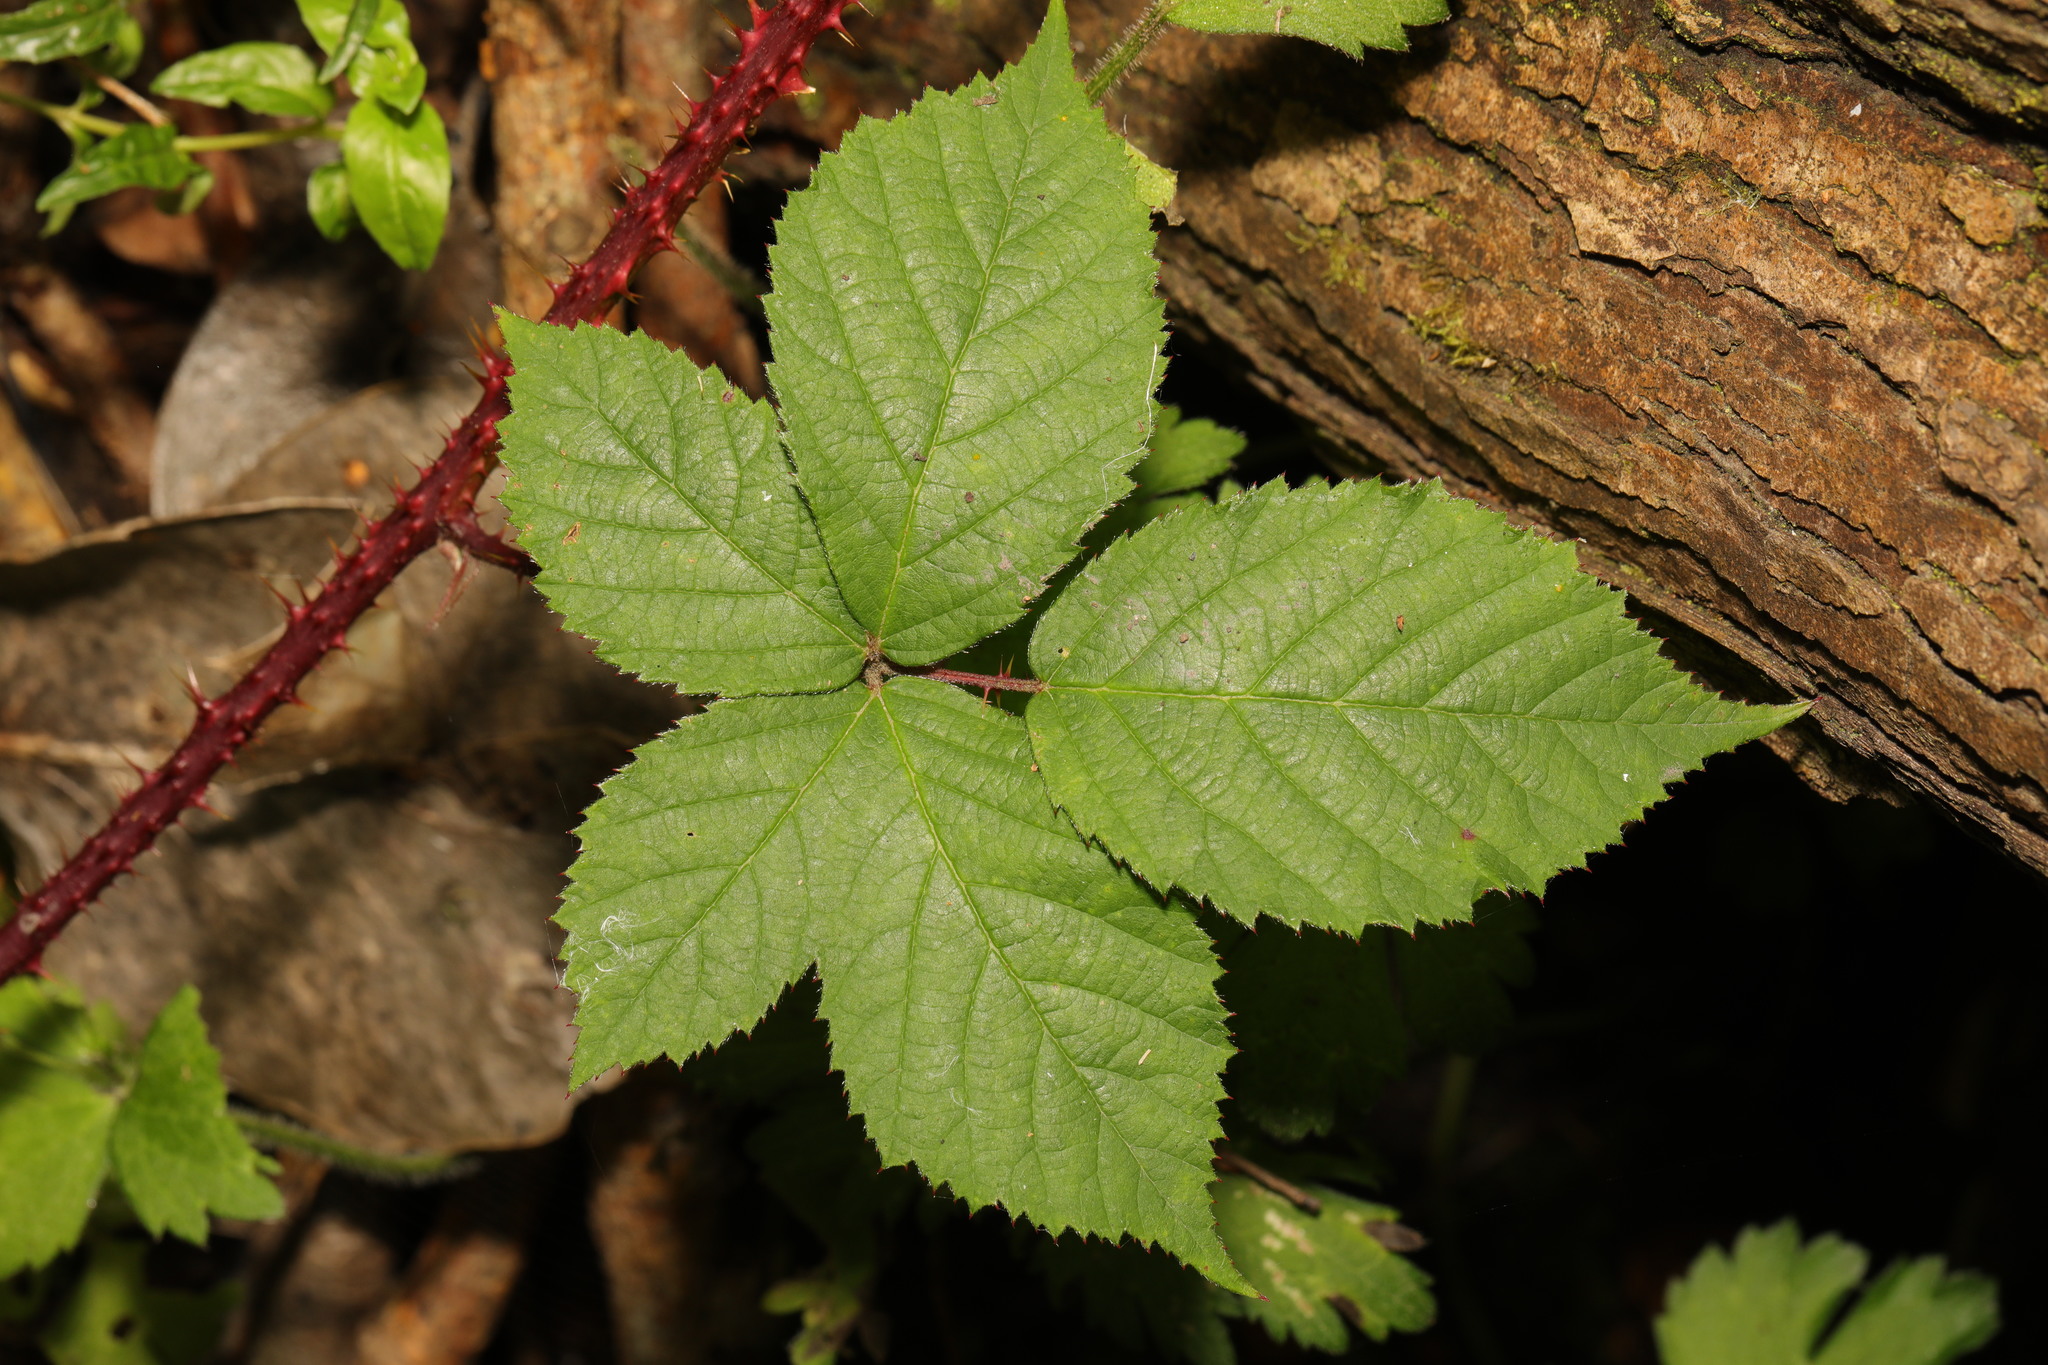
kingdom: Plantae
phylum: Tracheophyta
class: Magnoliopsida
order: Rosales
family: Rosaceae
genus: Rubus
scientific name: Rubus intensior
